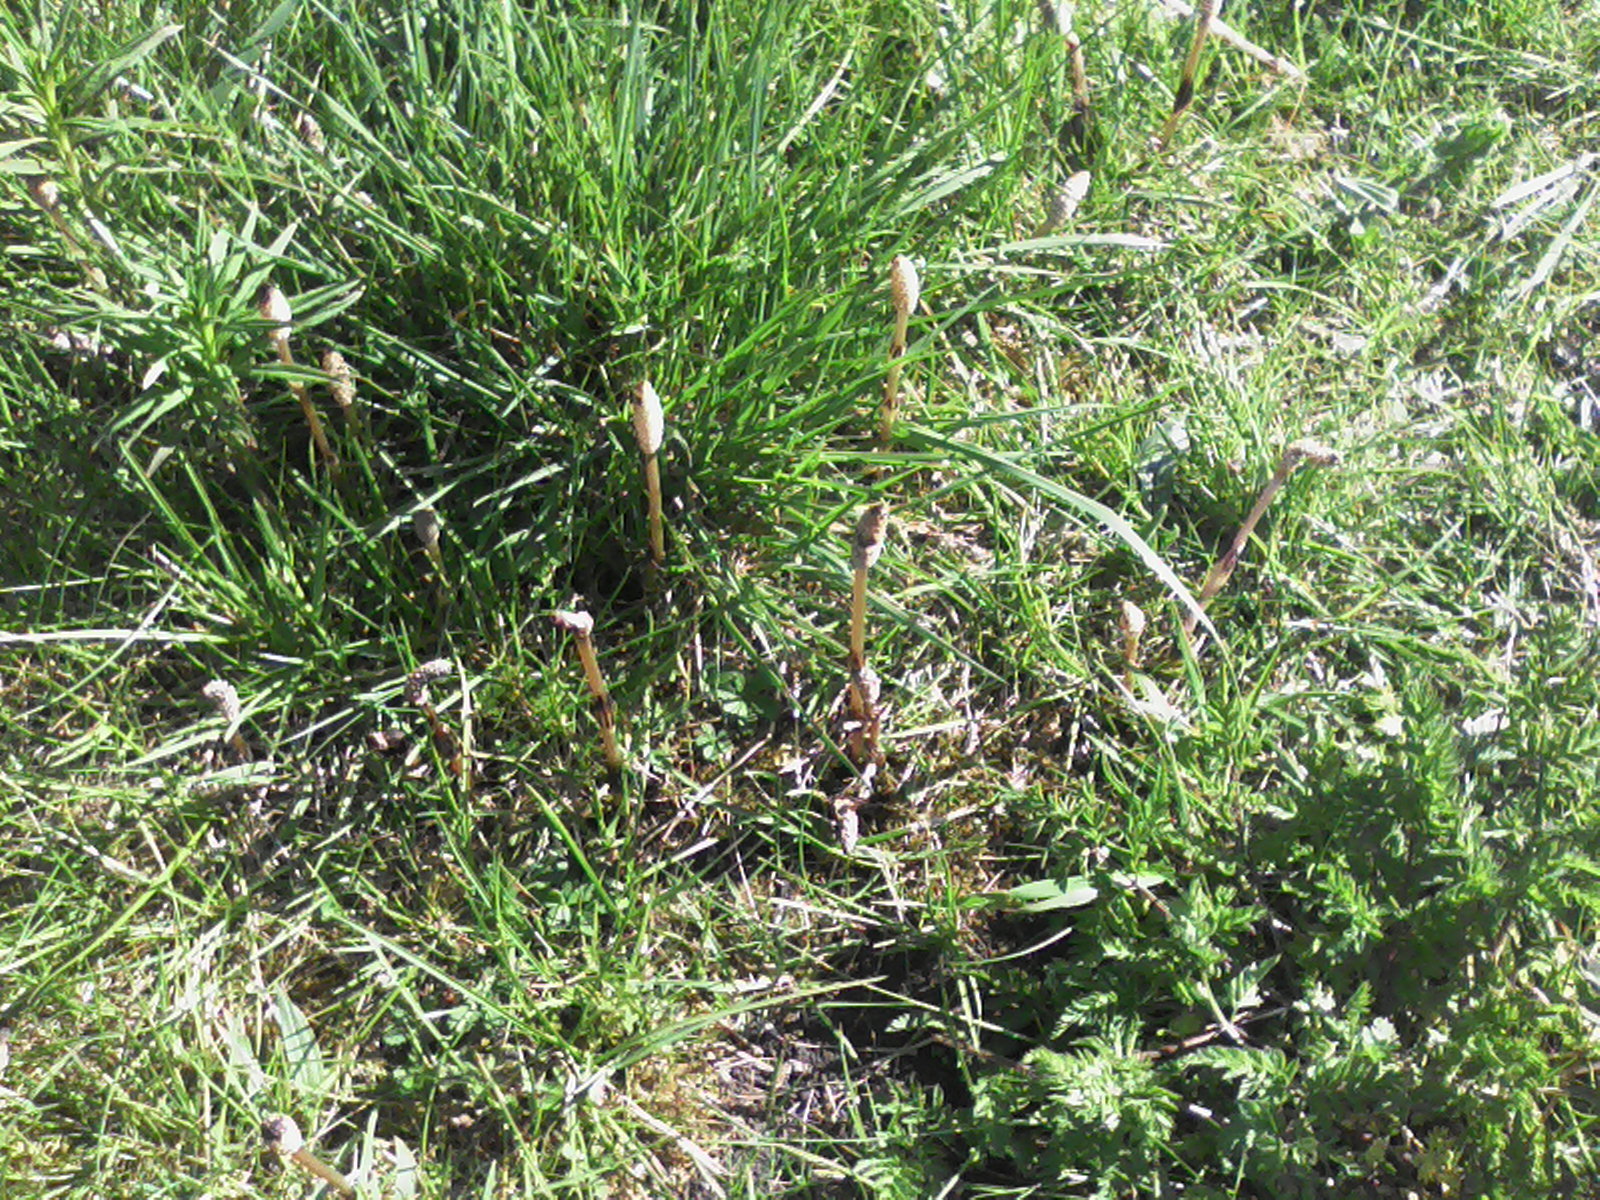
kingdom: Plantae
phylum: Tracheophyta
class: Polypodiopsida
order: Equisetales
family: Equisetaceae
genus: Equisetum
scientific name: Equisetum arvense
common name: Field horsetail
